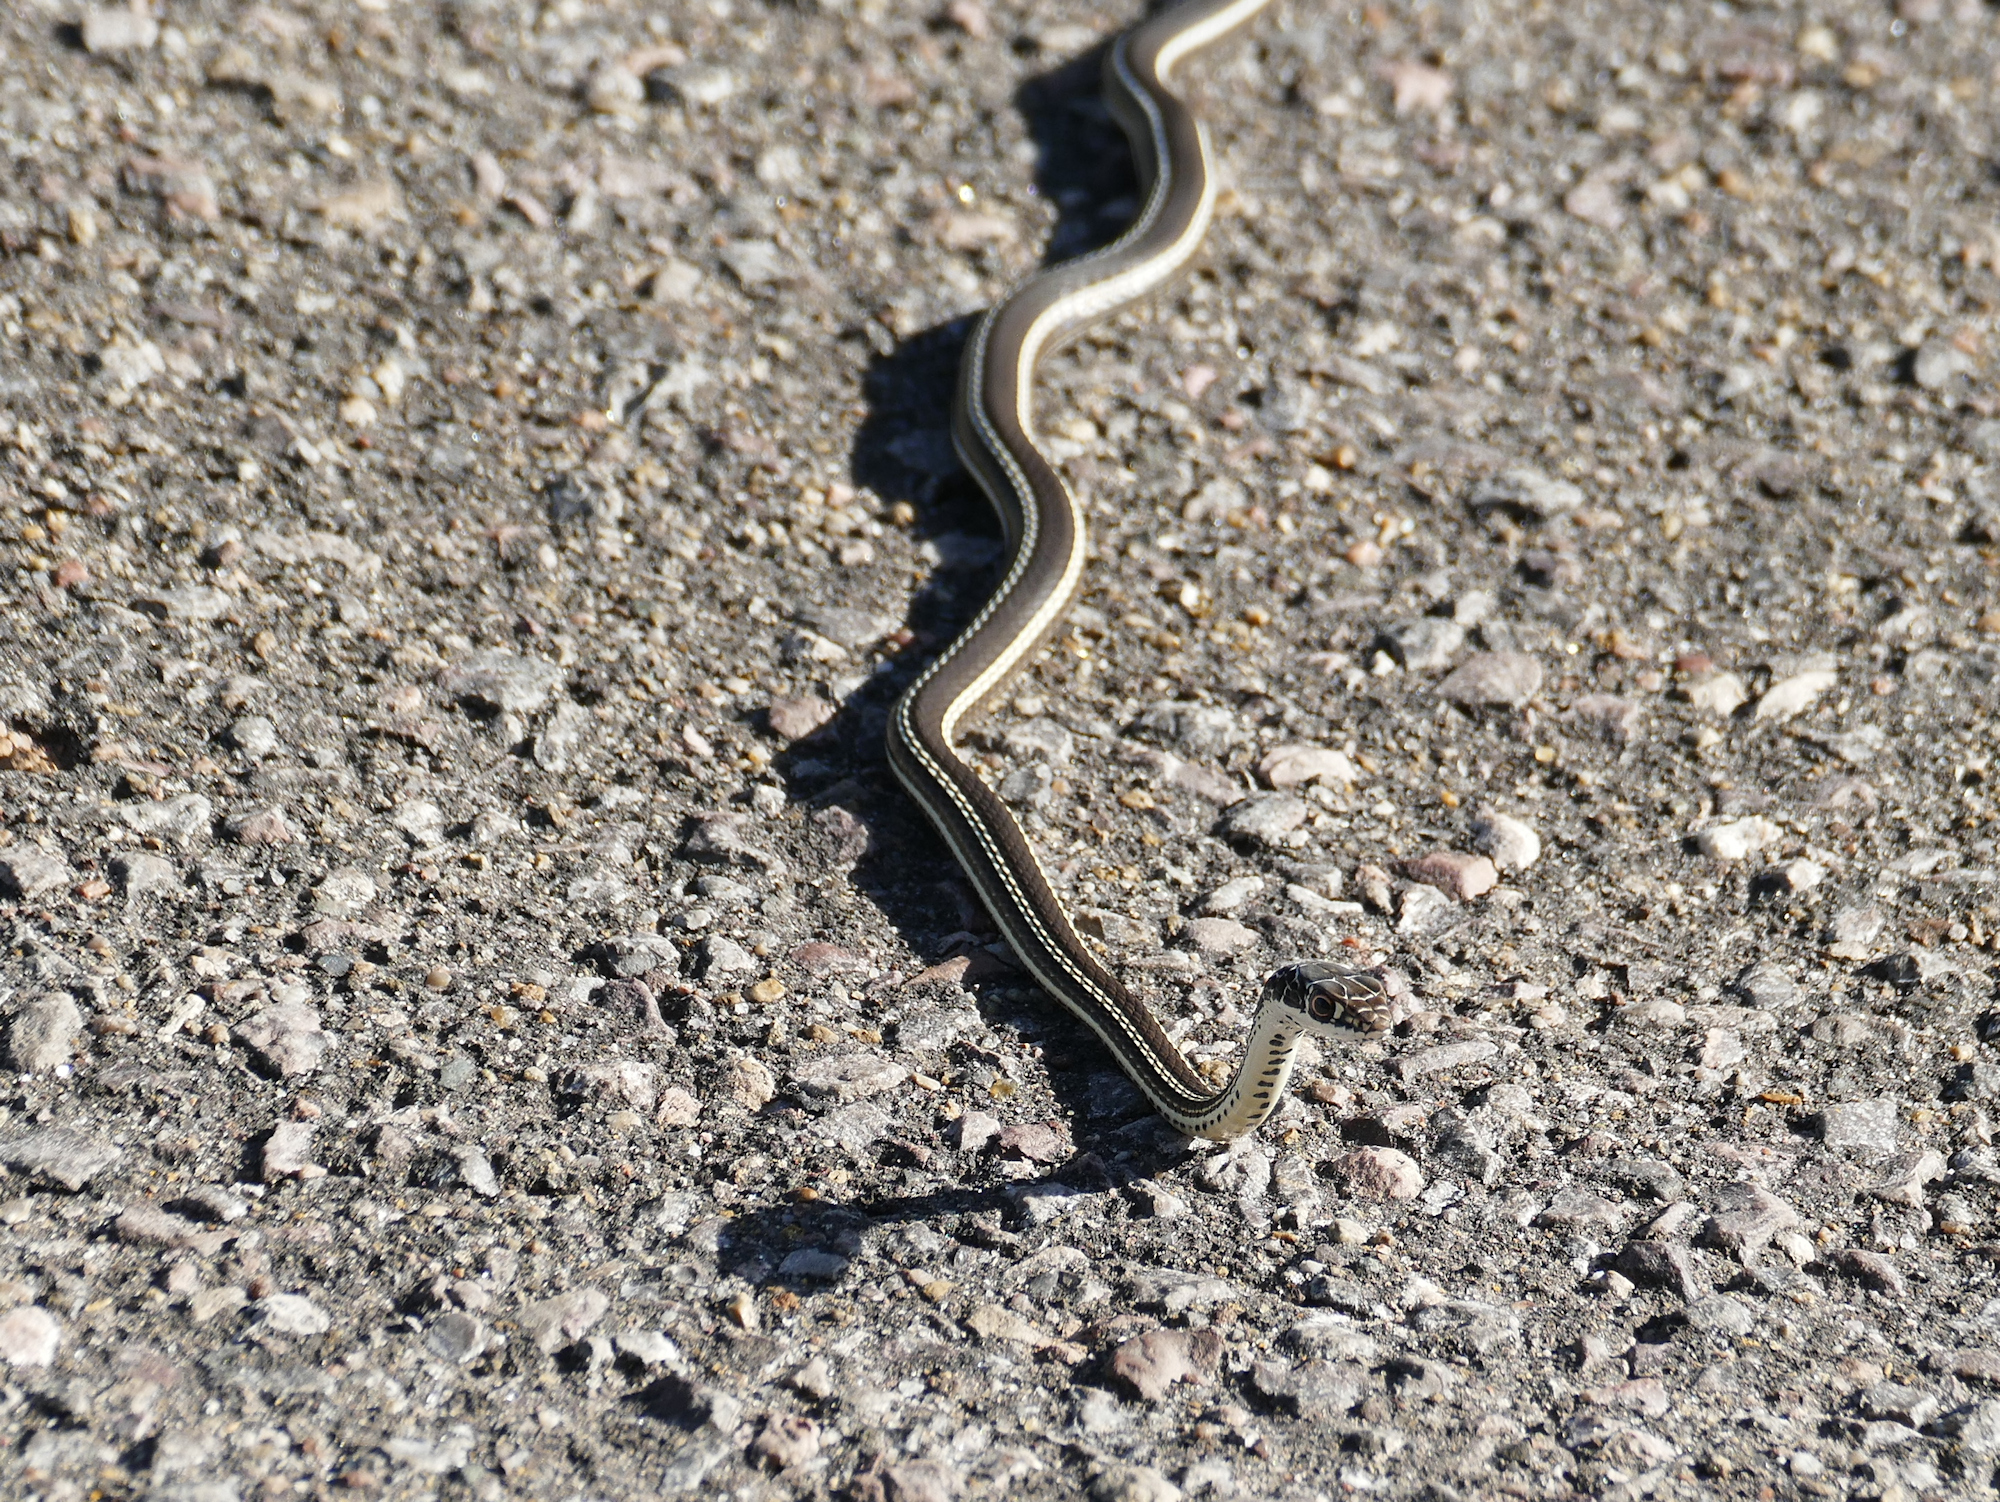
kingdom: Animalia
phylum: Chordata
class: Squamata
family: Colubridae
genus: Masticophis
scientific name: Masticophis taeniatus
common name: Striped whipsnake
